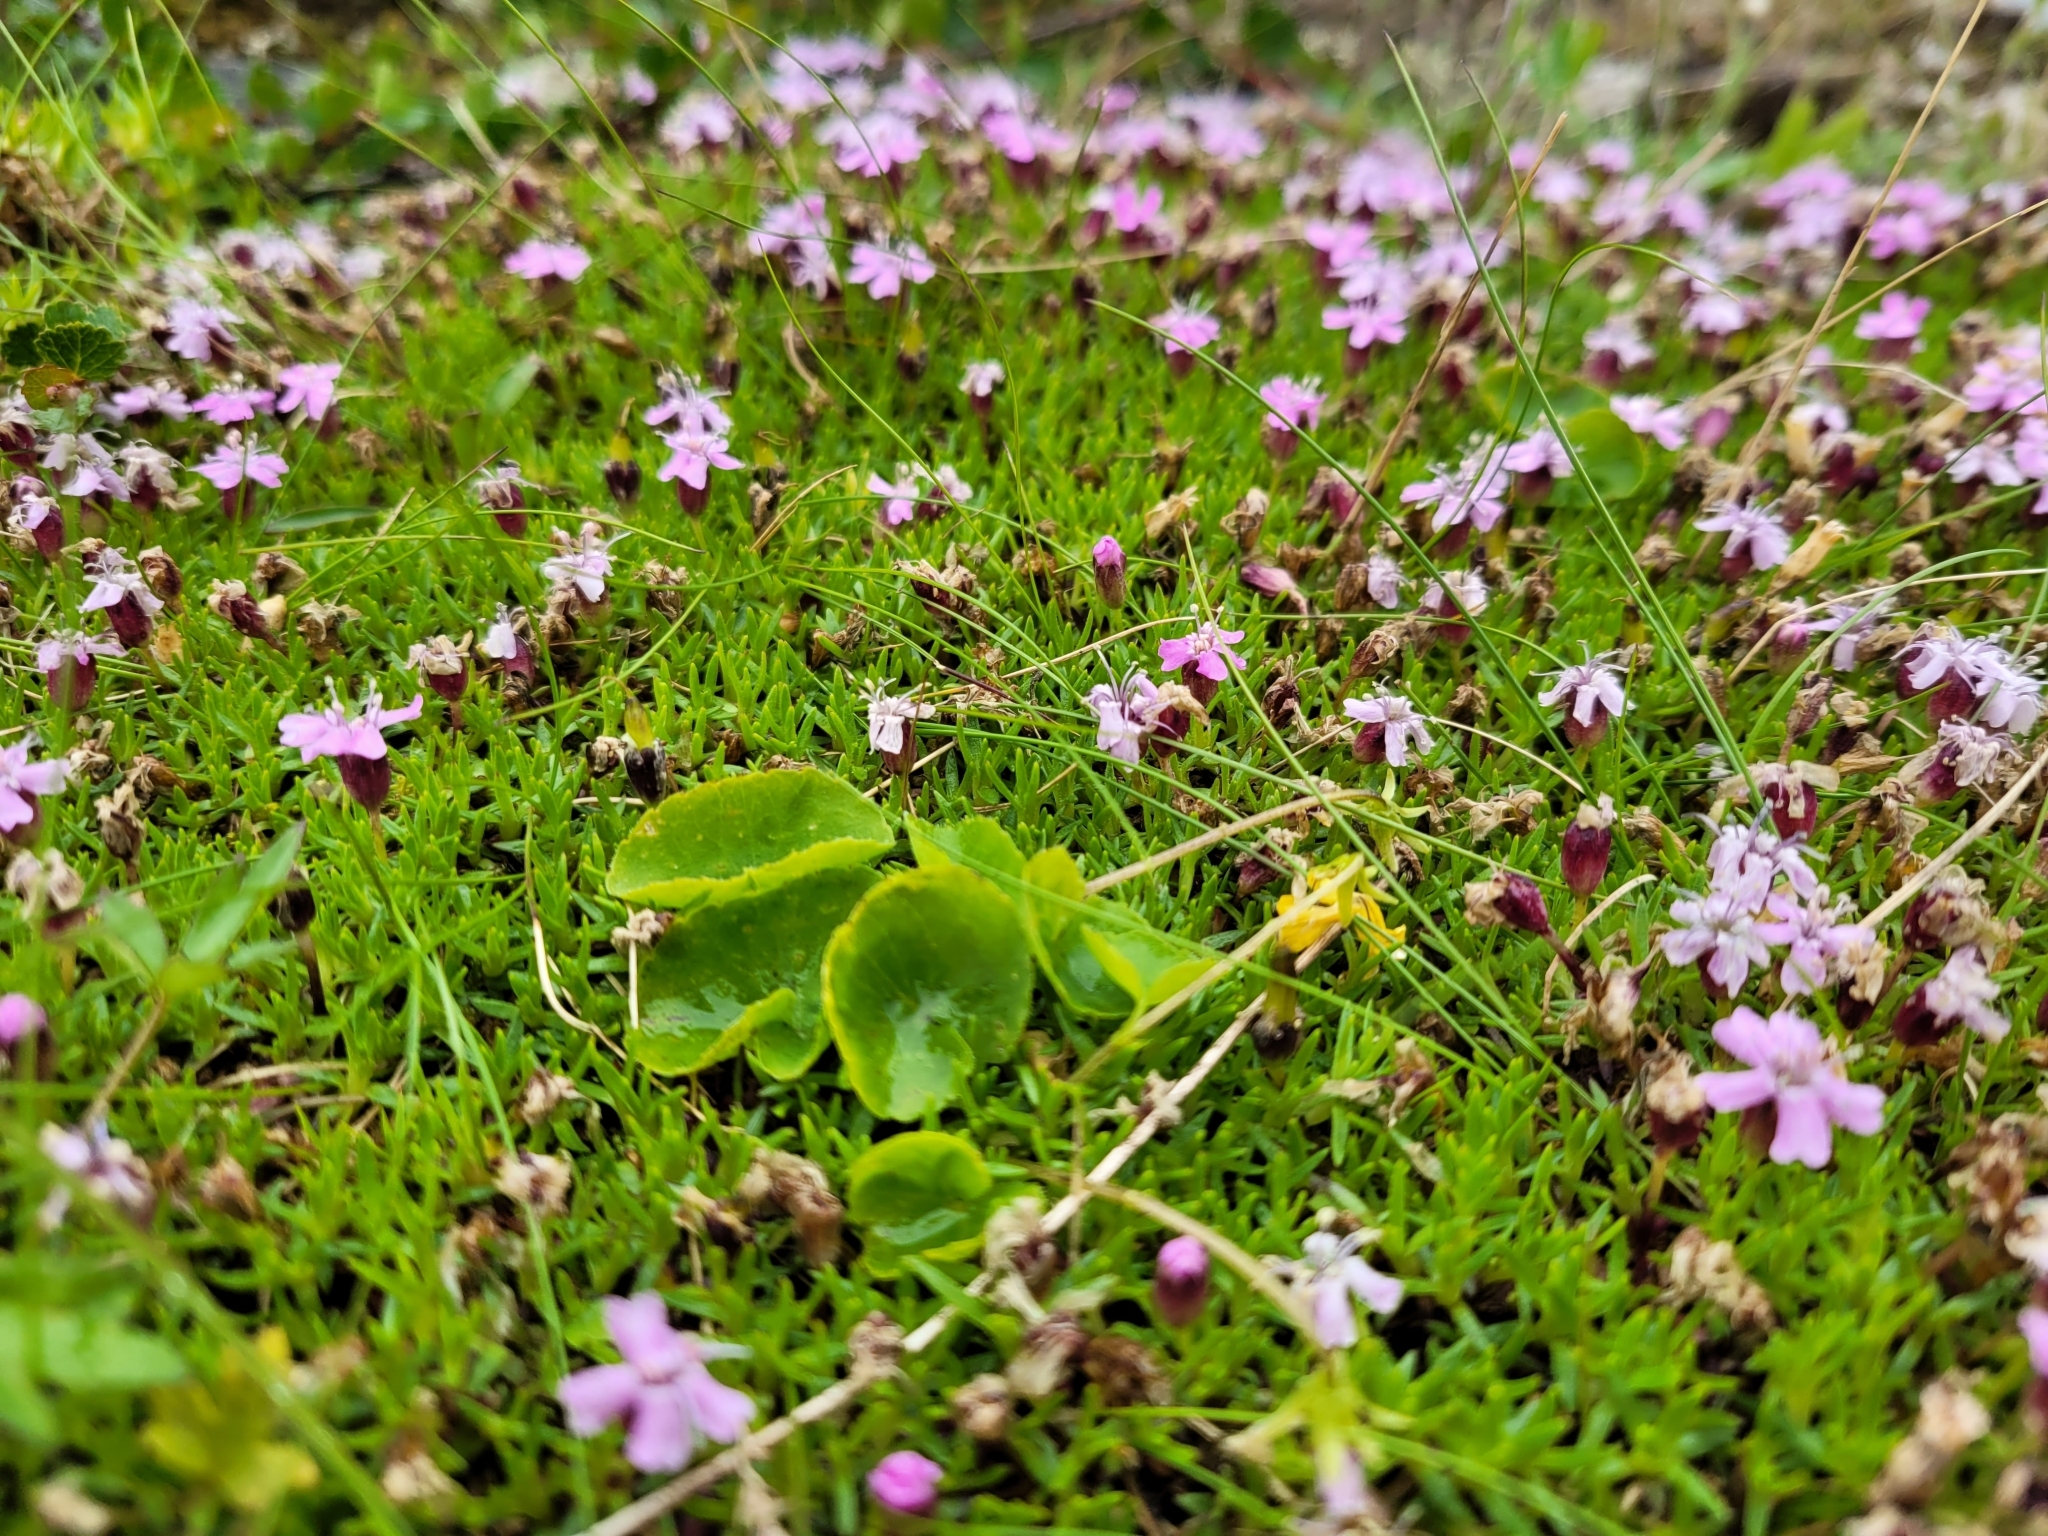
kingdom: Plantae
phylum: Tracheophyta
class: Magnoliopsida
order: Caryophyllales
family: Caryophyllaceae
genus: Silene
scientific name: Silene acaulis
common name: Moss campion
